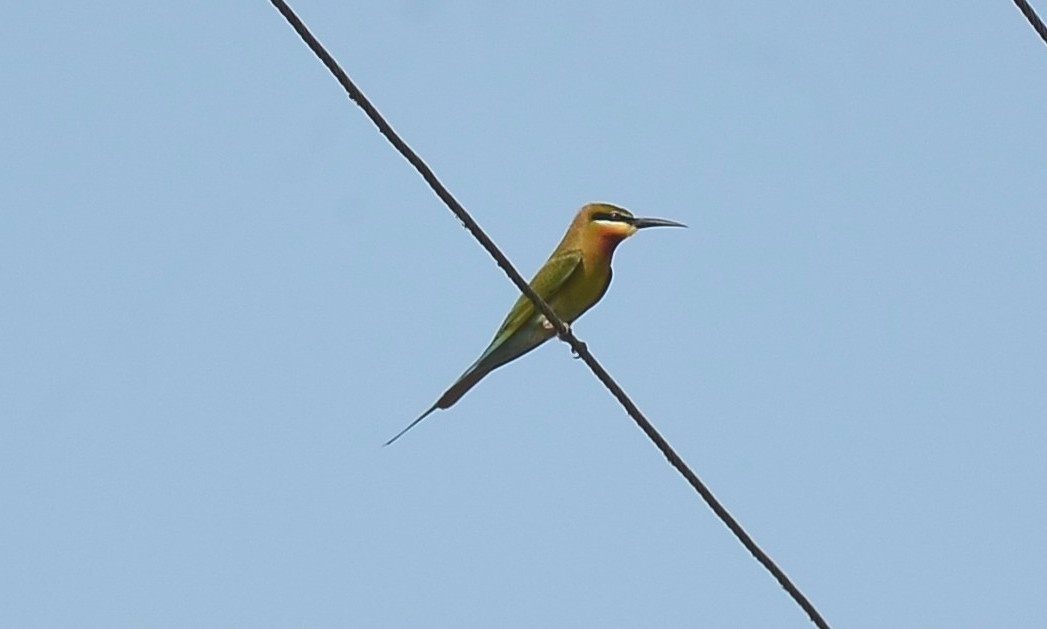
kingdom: Animalia
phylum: Chordata
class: Aves
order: Coraciiformes
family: Meropidae
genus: Merops
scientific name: Merops philippinus
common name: Blue-tailed bee-eater
